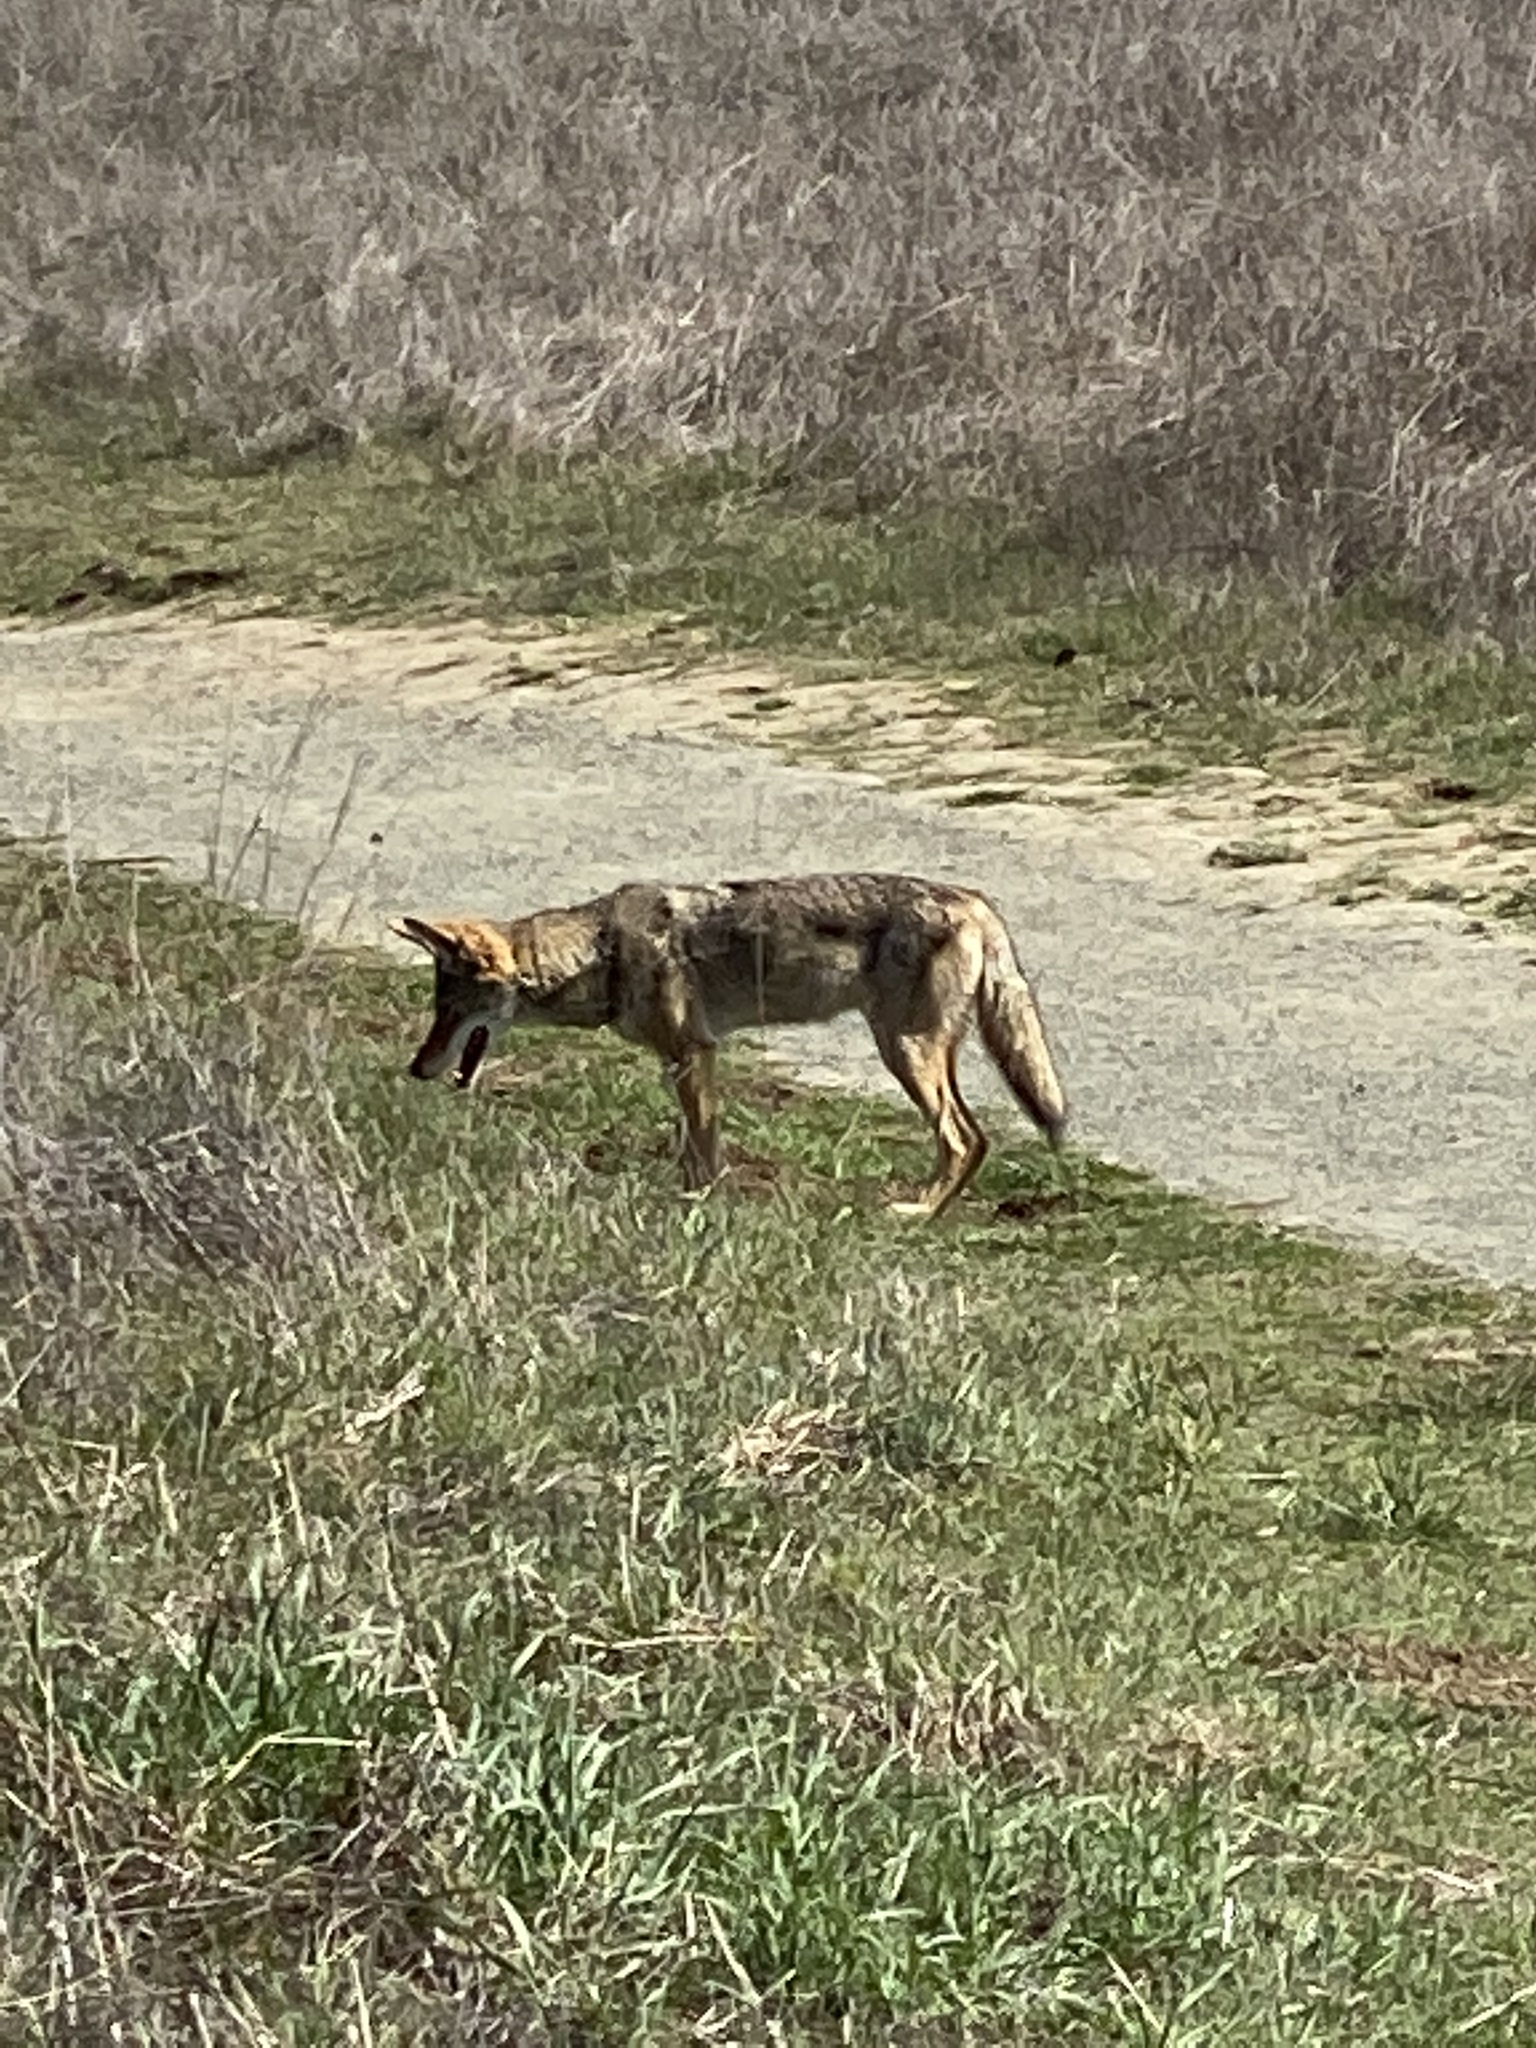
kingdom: Animalia
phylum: Chordata
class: Mammalia
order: Carnivora
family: Canidae
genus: Canis
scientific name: Canis latrans
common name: Coyote
